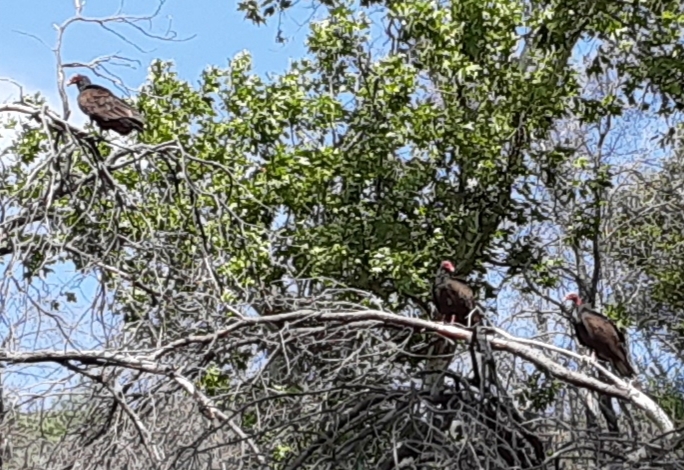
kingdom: Animalia
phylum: Chordata
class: Aves
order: Accipitriformes
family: Cathartidae
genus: Cathartes
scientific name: Cathartes aura
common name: Turkey vulture
